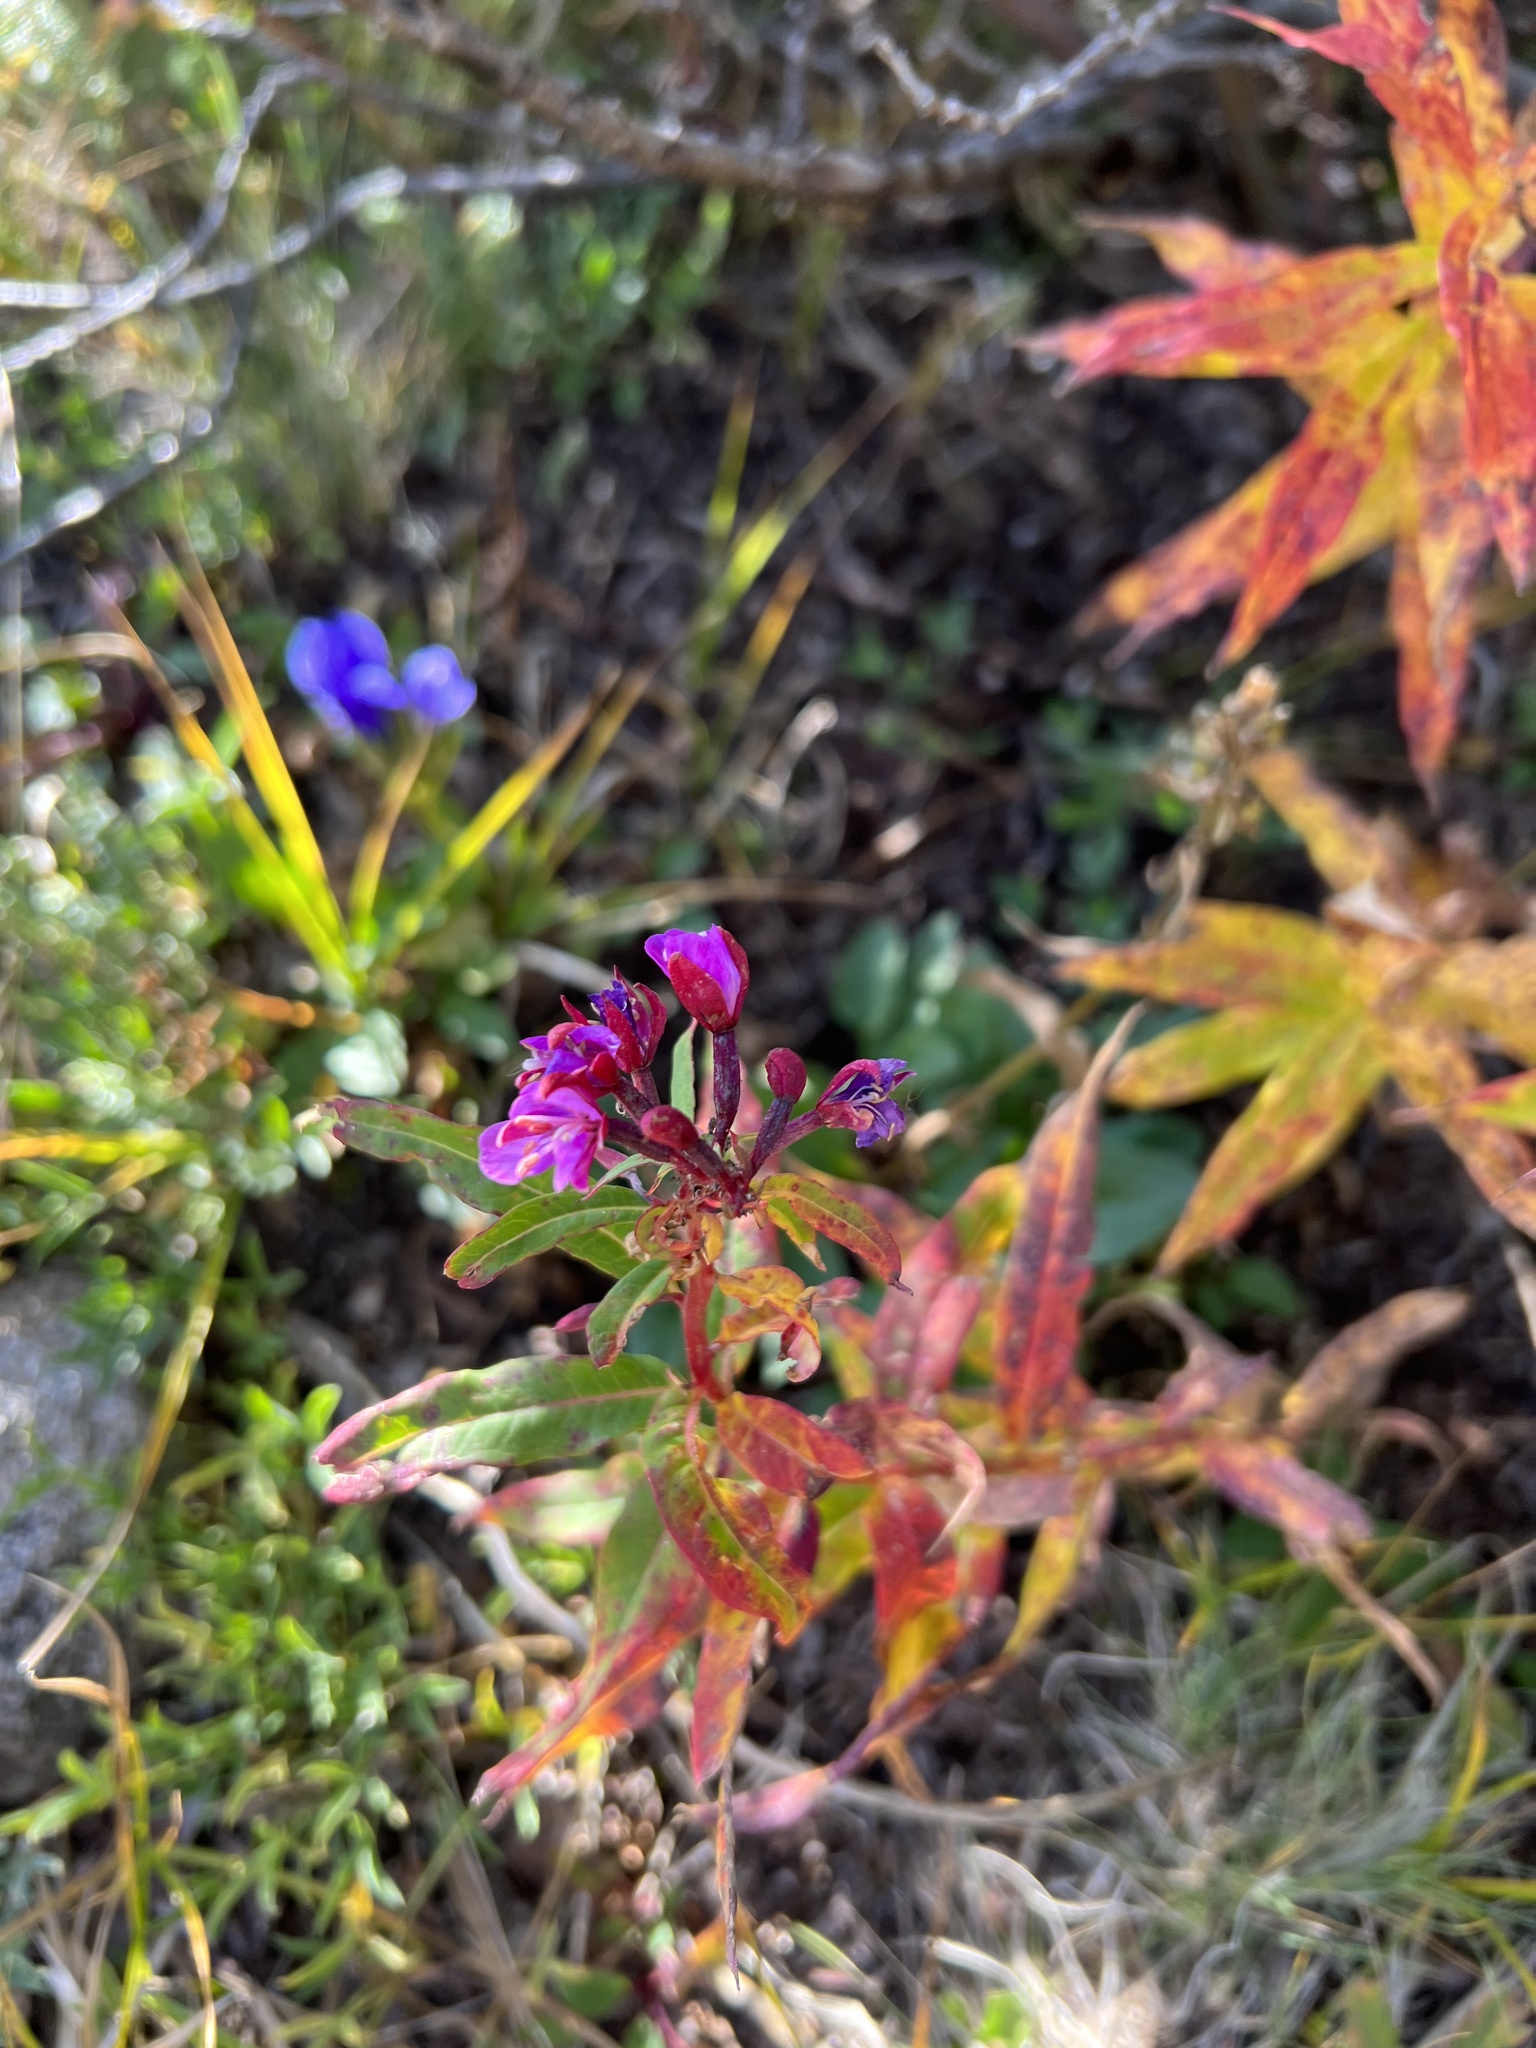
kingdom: Plantae
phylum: Tracheophyta
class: Magnoliopsida
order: Myrtales
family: Onagraceae
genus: Chamaenerion
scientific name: Chamaenerion angustifolium
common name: Fireweed
